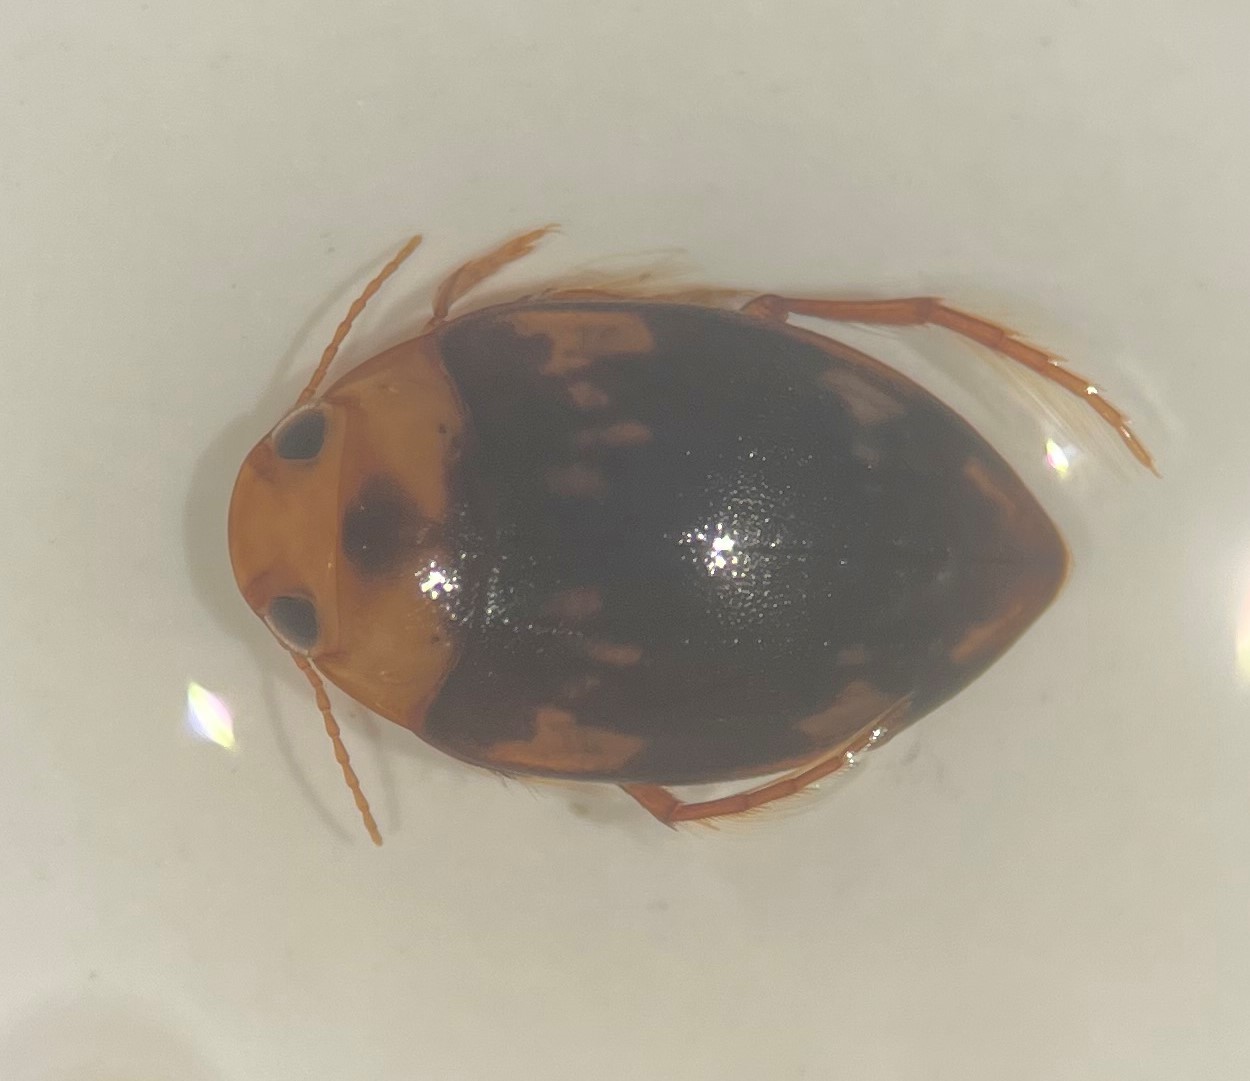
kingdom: Animalia
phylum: Arthropoda
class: Insecta
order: Coleoptera
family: Dytiscidae
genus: Neoporus
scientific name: Neoporus dilatatus
